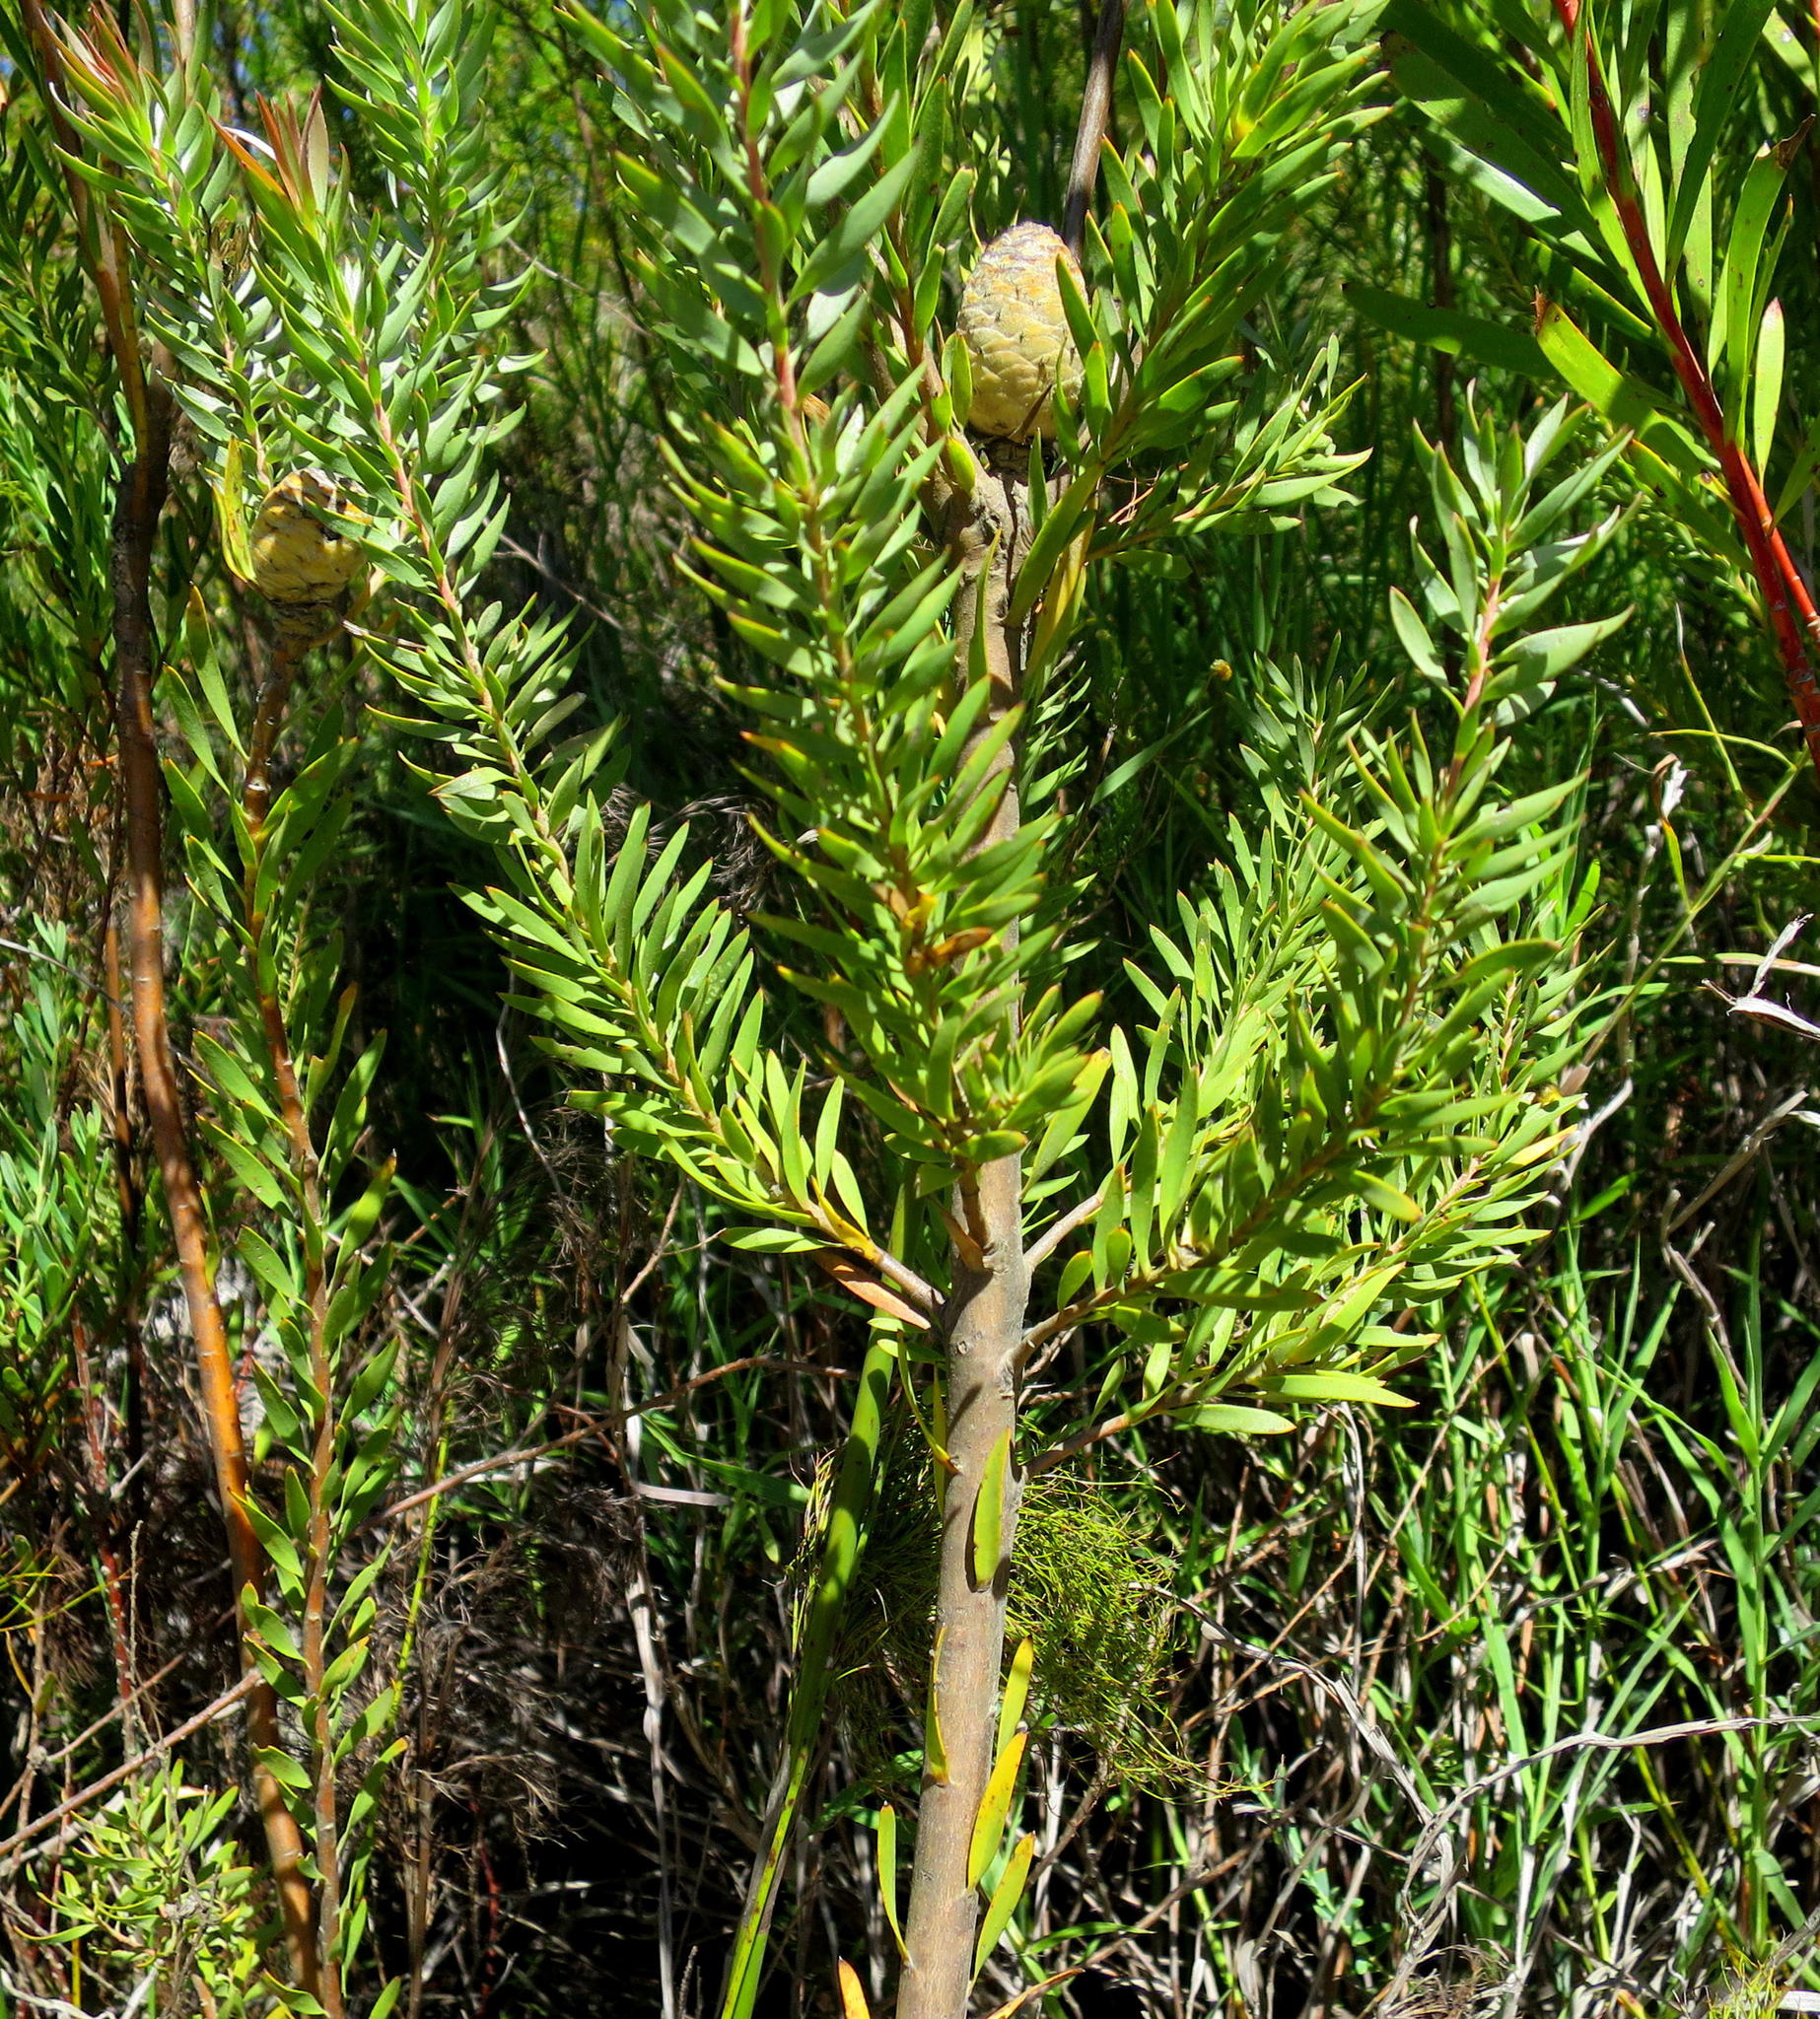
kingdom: Plantae
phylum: Tracheophyta
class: Magnoliopsida
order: Proteales
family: Proteaceae
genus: Leucadendron
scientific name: Leucadendron uliginosum
